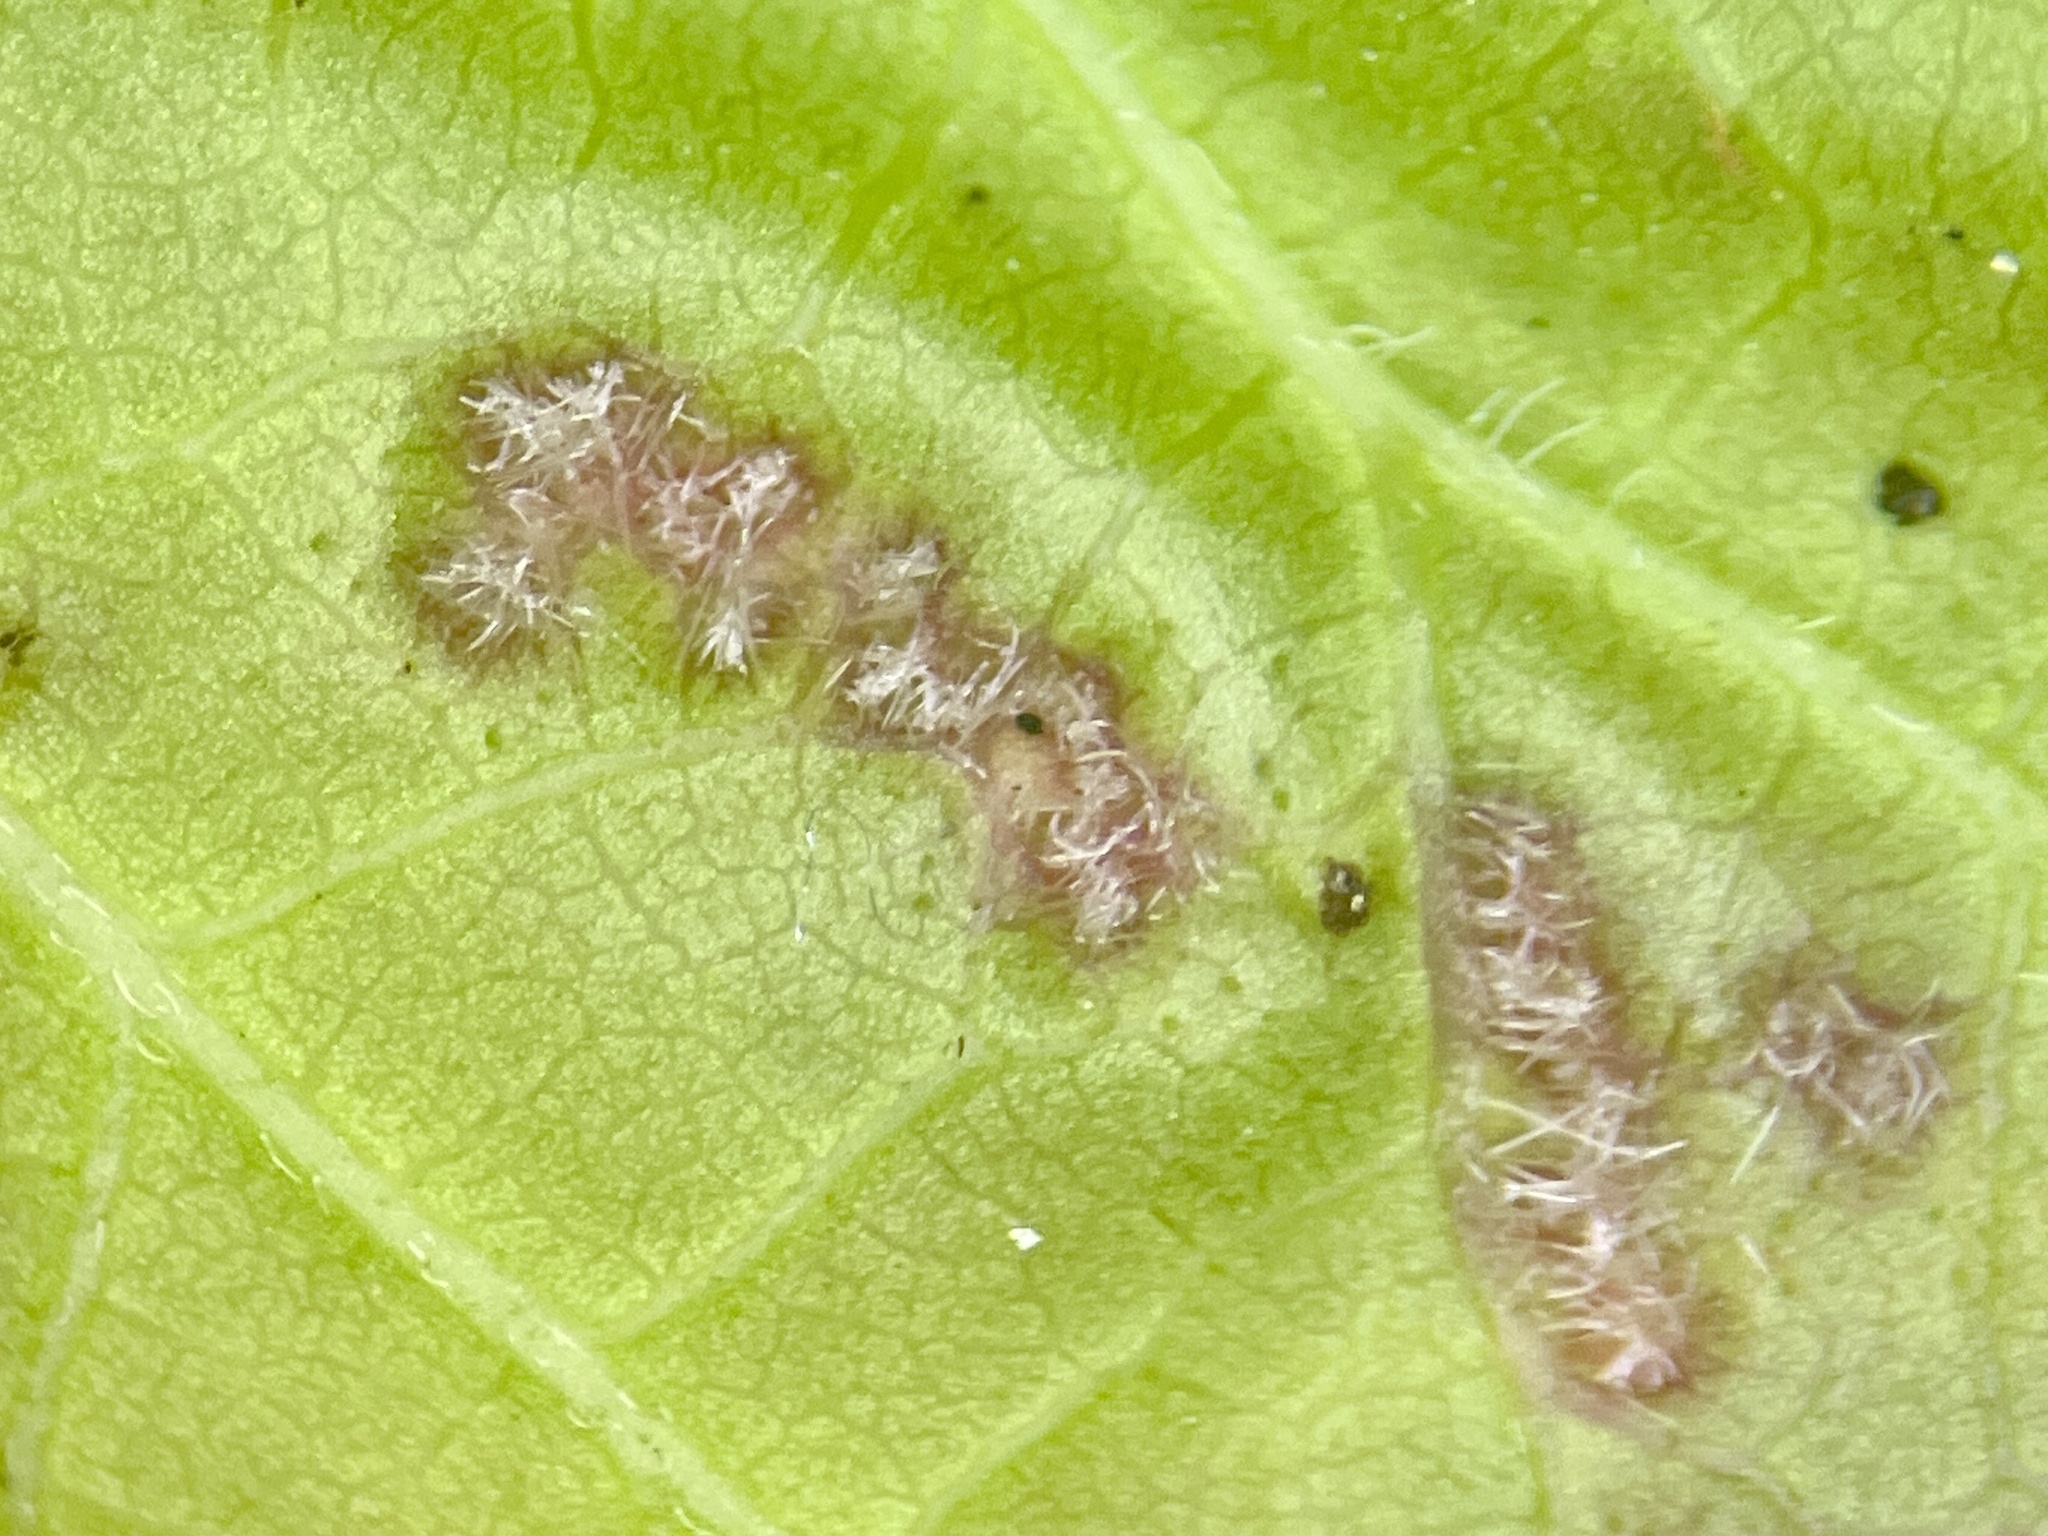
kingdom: Animalia
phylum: Arthropoda
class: Arachnida
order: Trombidiformes
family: Eriophyidae
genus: Aculops
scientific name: Aculops
